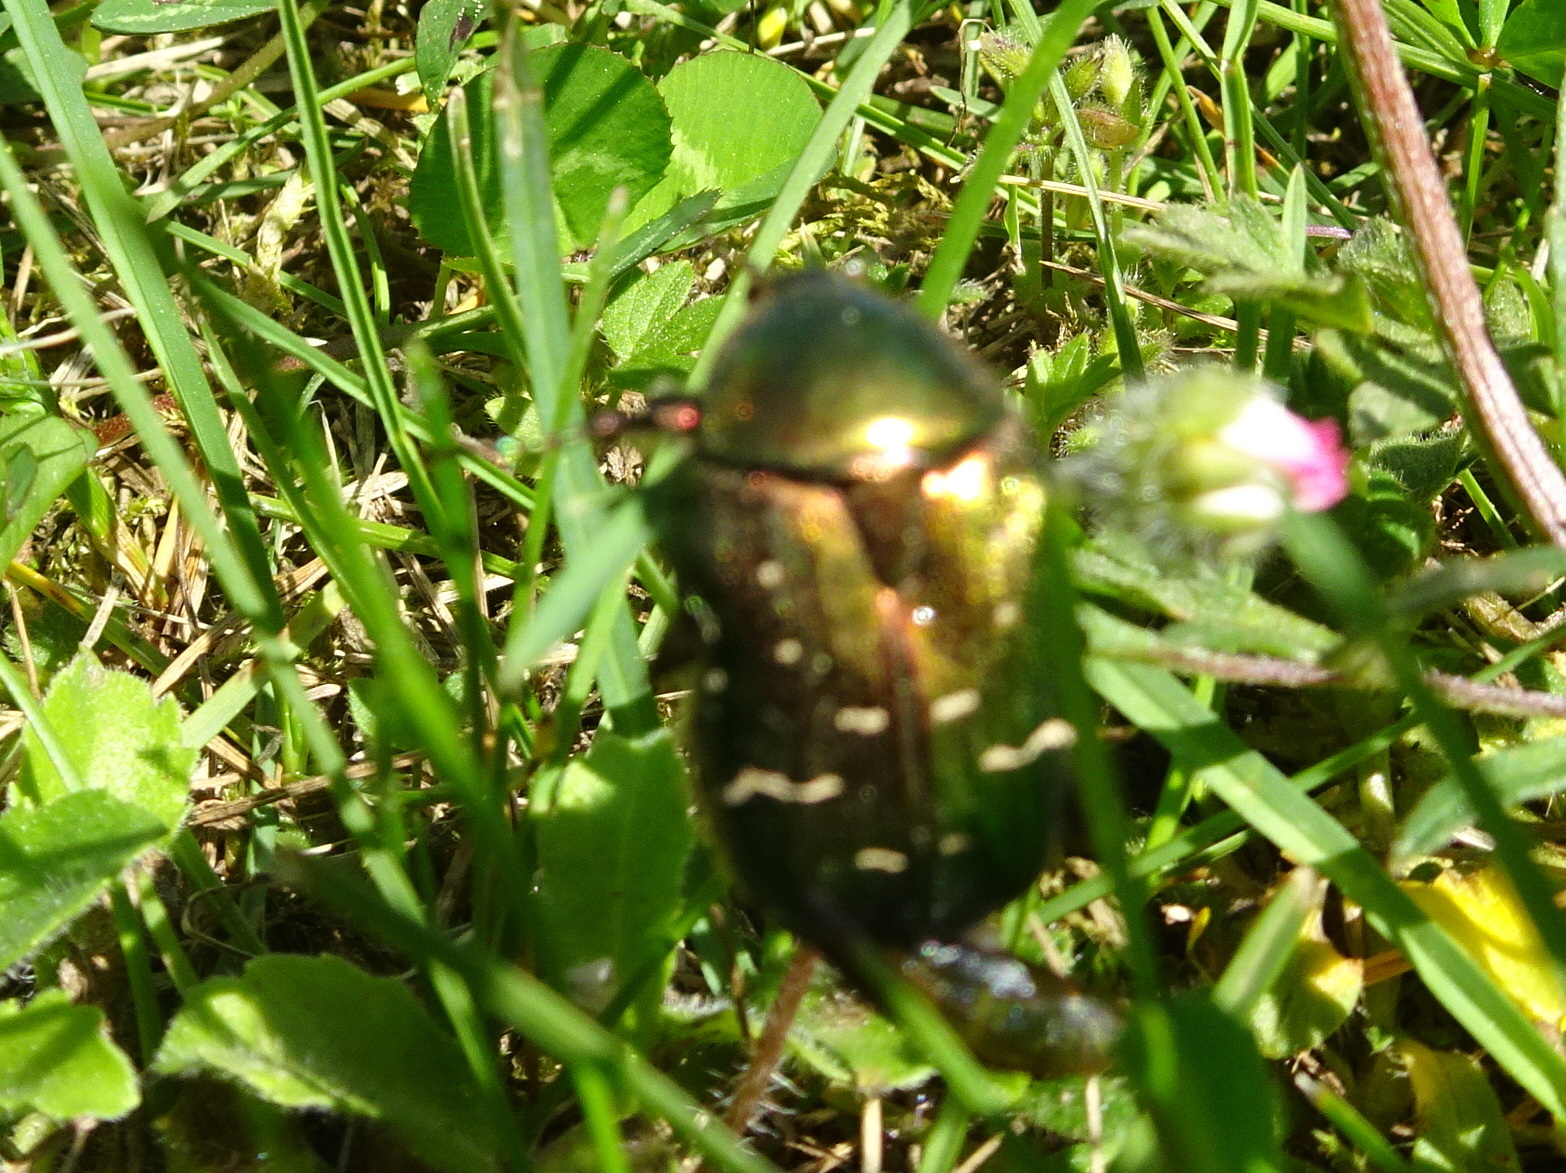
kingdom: Animalia
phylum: Arthropoda
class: Insecta
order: Coleoptera
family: Scarabaeidae
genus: Cetonia
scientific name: Cetonia aurata
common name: Rose chafer
